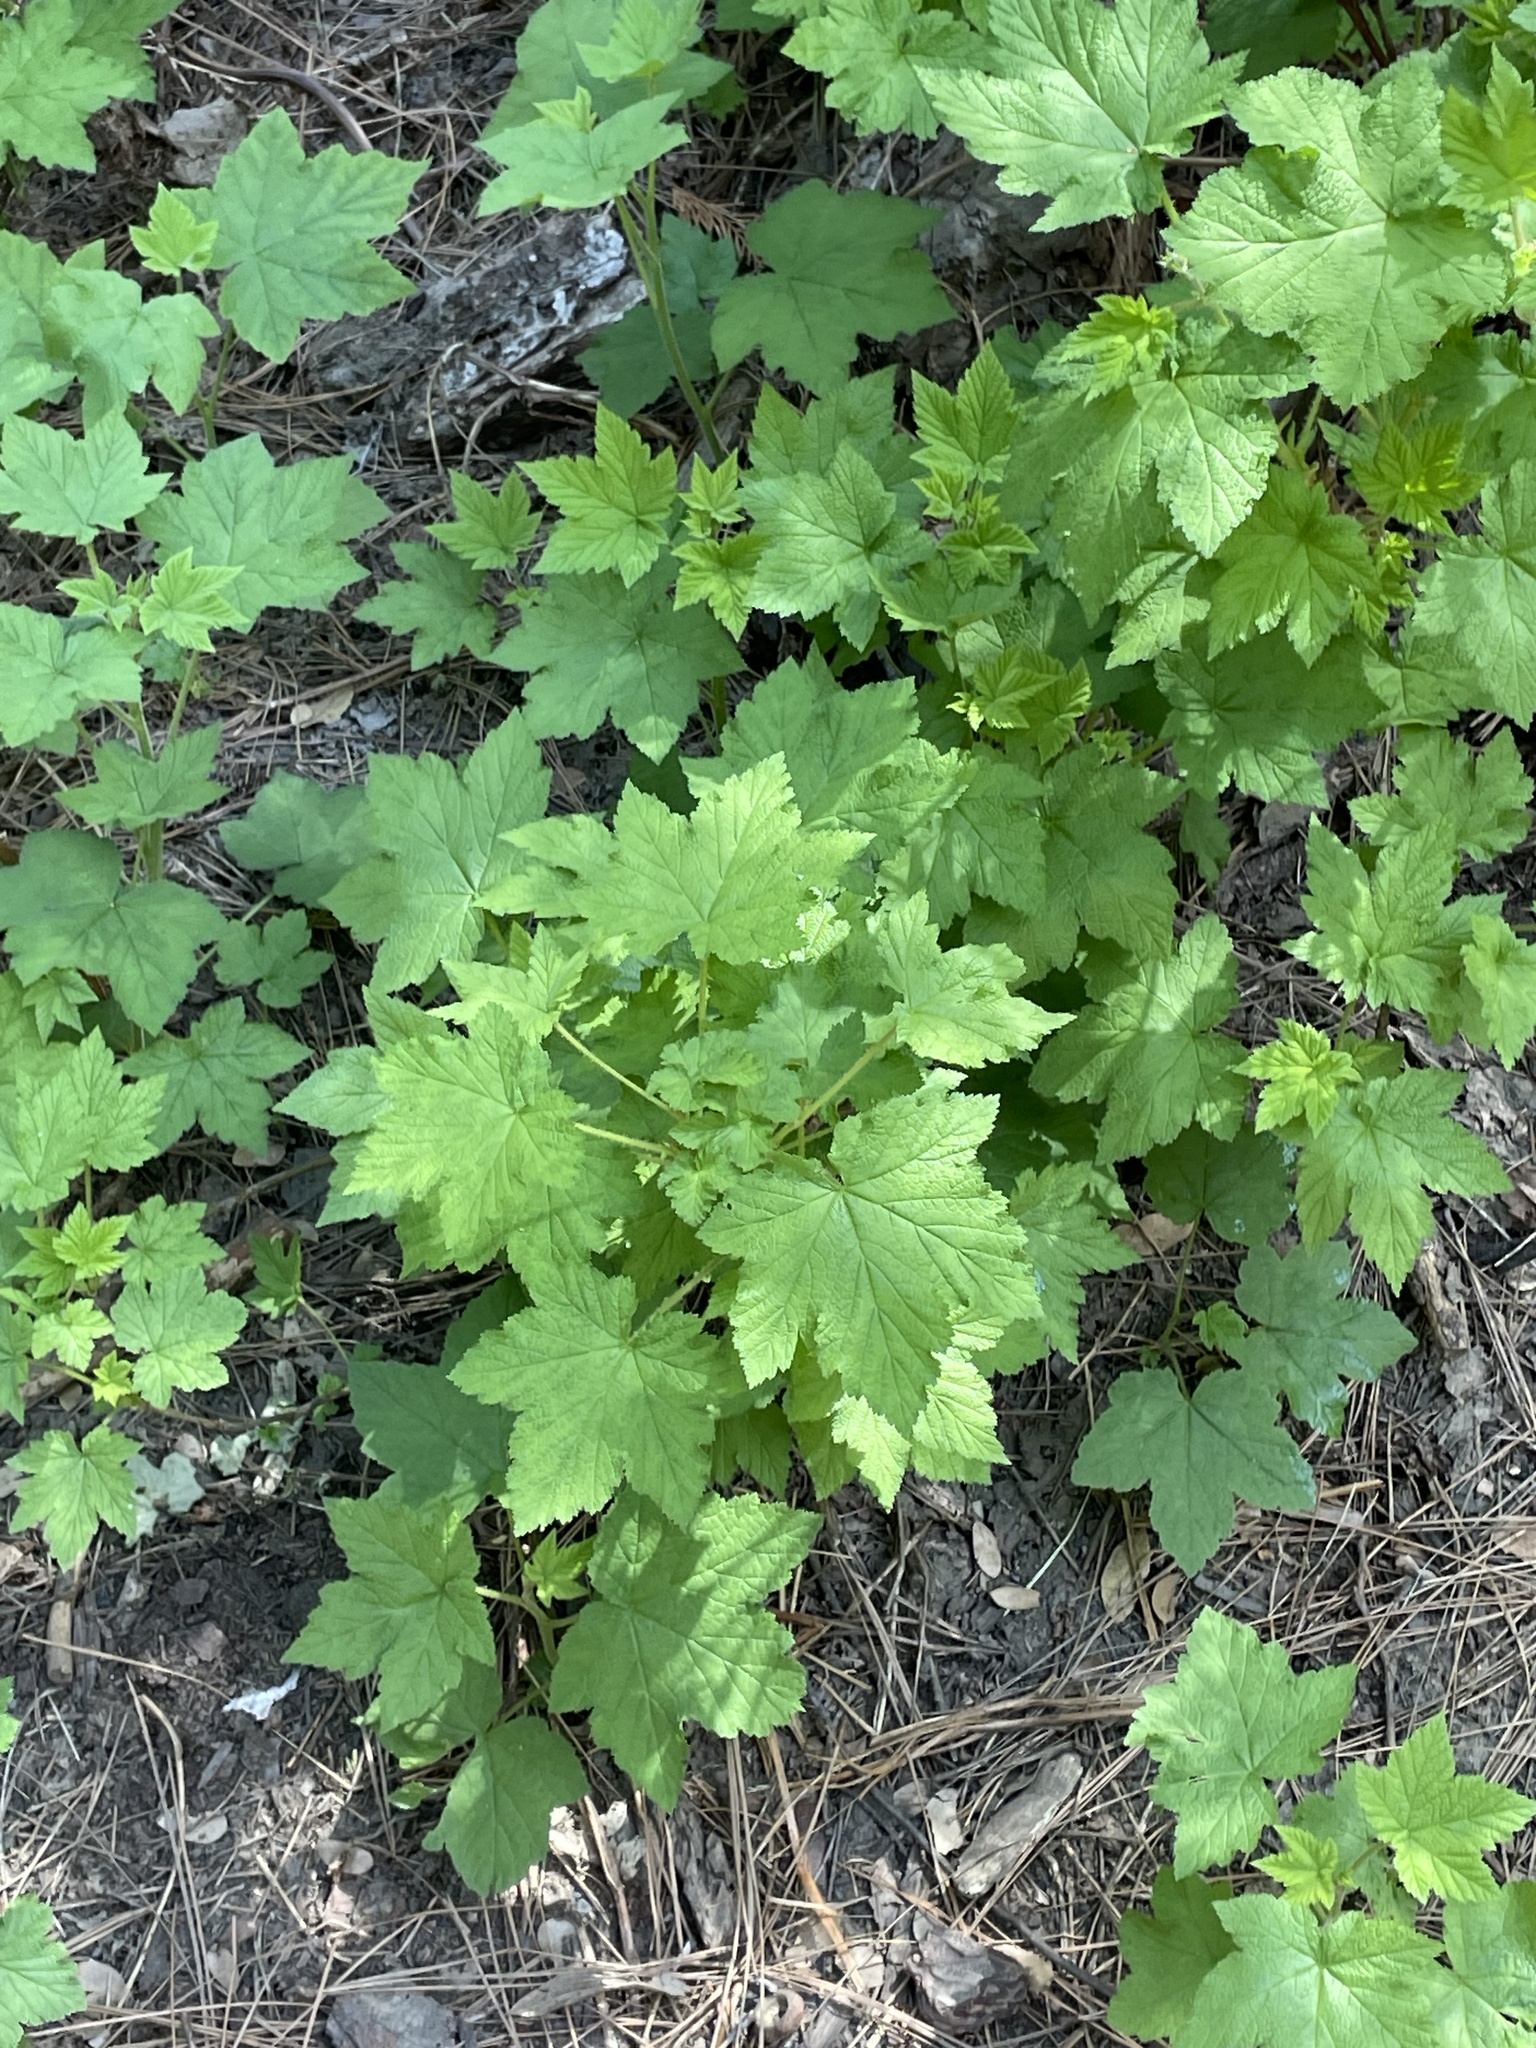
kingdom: Plantae
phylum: Tracheophyta
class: Magnoliopsida
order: Rosales
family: Rosaceae
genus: Rubus
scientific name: Rubus parviflorus
